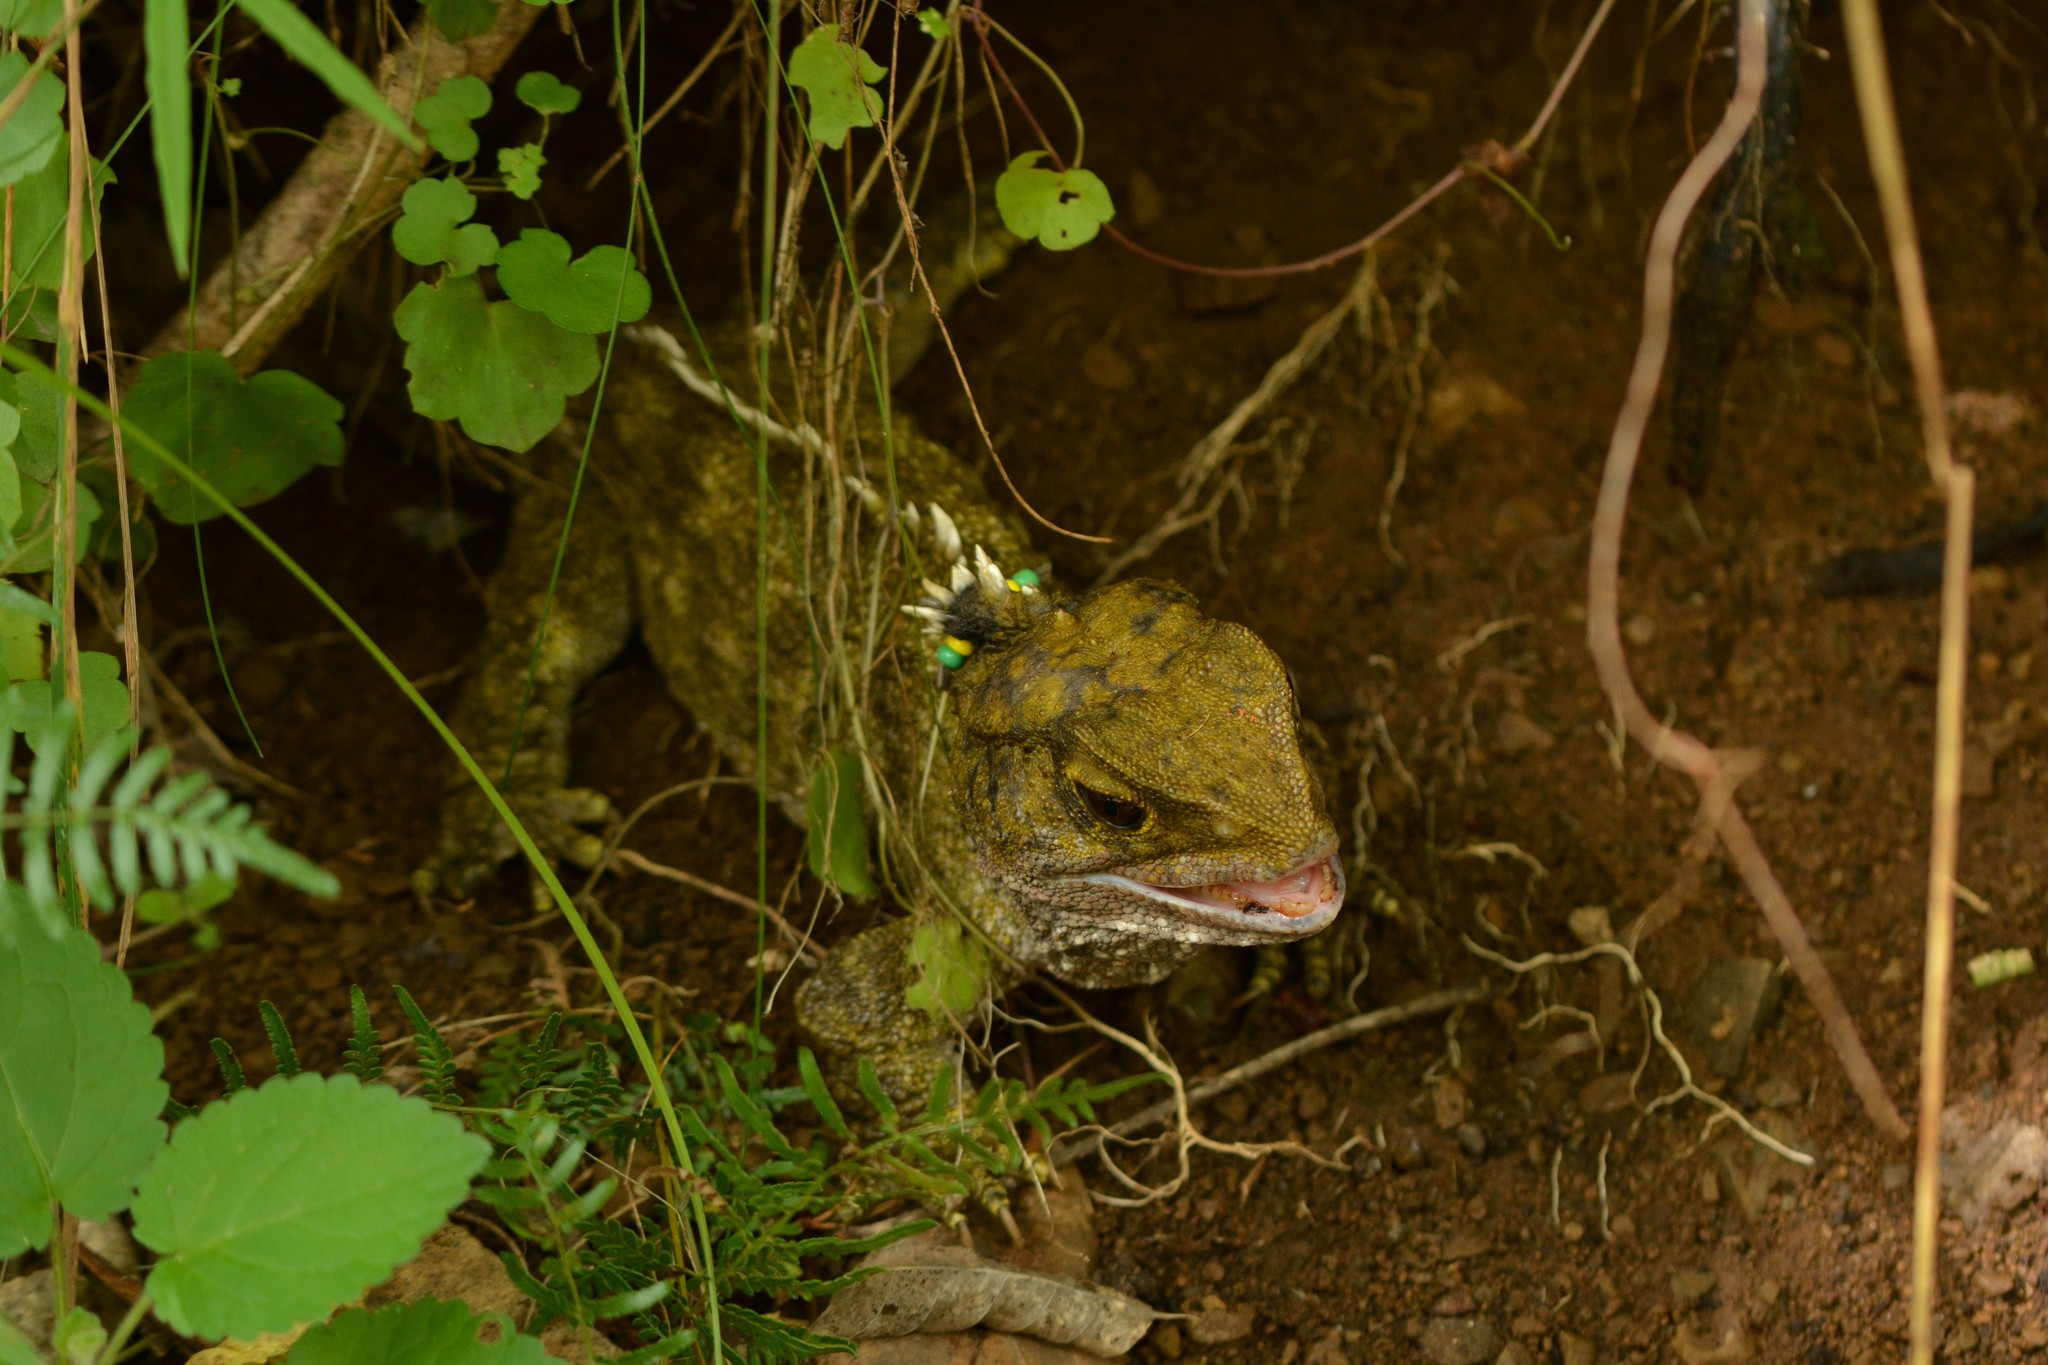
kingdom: Animalia
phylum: Chordata
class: Sphenodontia
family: Sphenodontidae
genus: Sphenodon
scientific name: Sphenodon punctatus
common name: Tuatara
